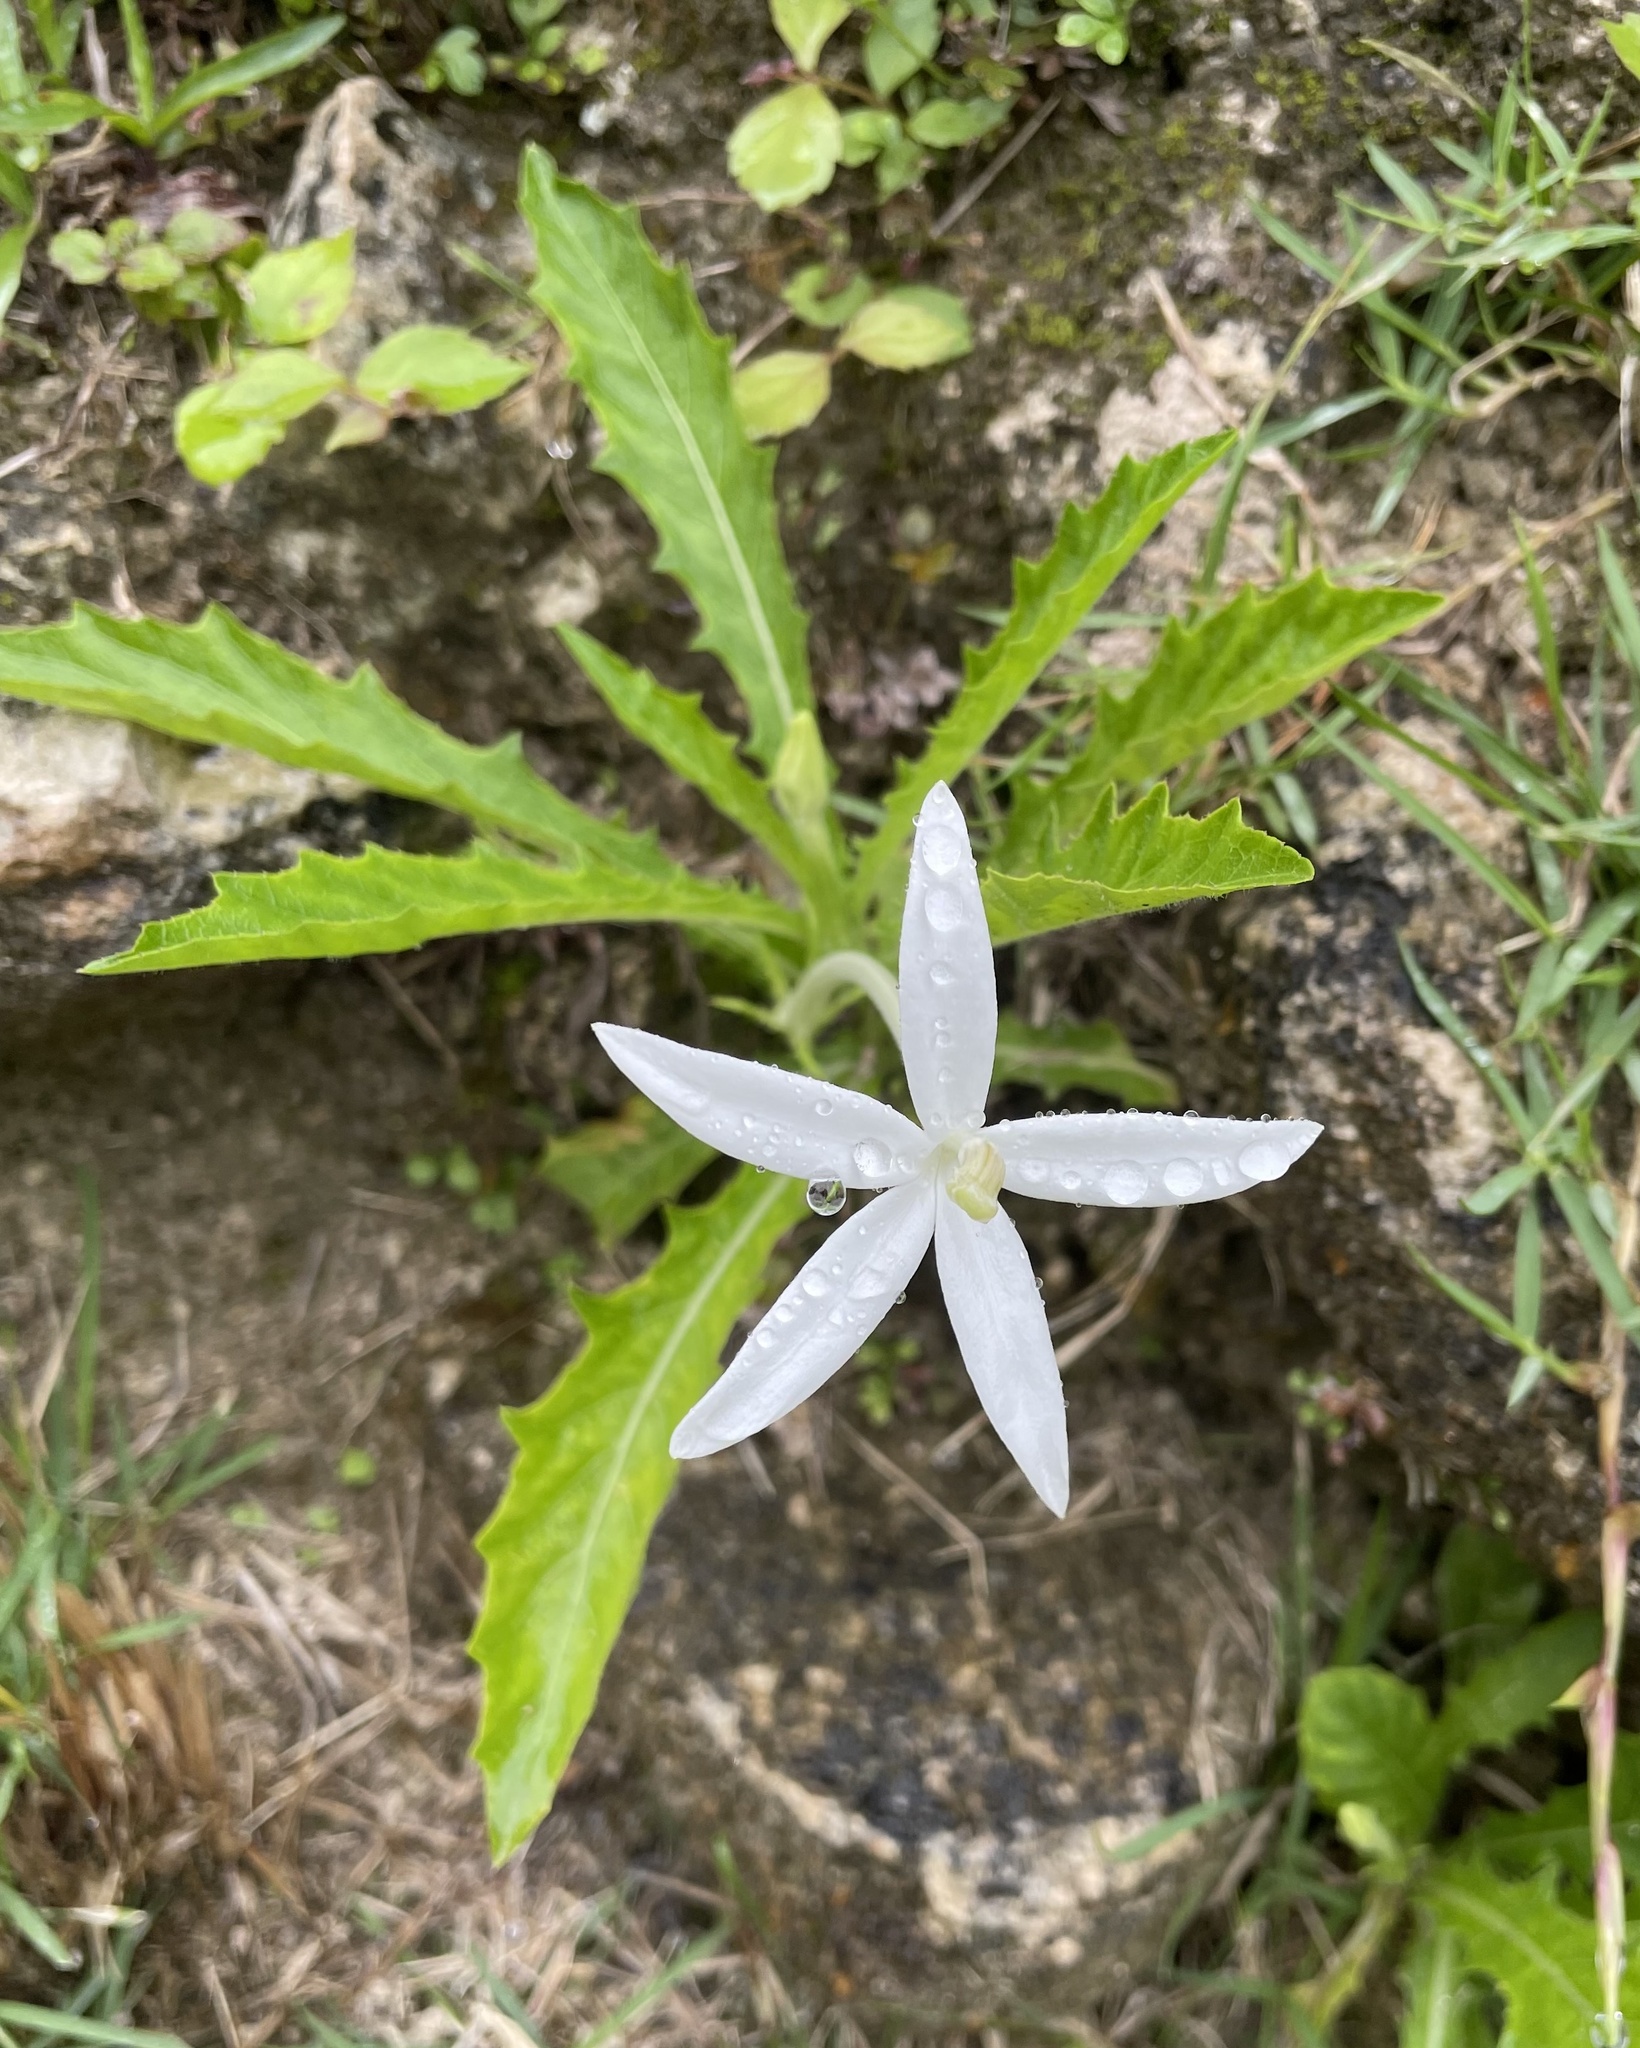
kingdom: Plantae
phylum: Tracheophyta
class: Magnoliopsida
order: Asterales
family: Campanulaceae
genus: Hippobroma
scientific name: Hippobroma longiflora
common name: Madamfate
